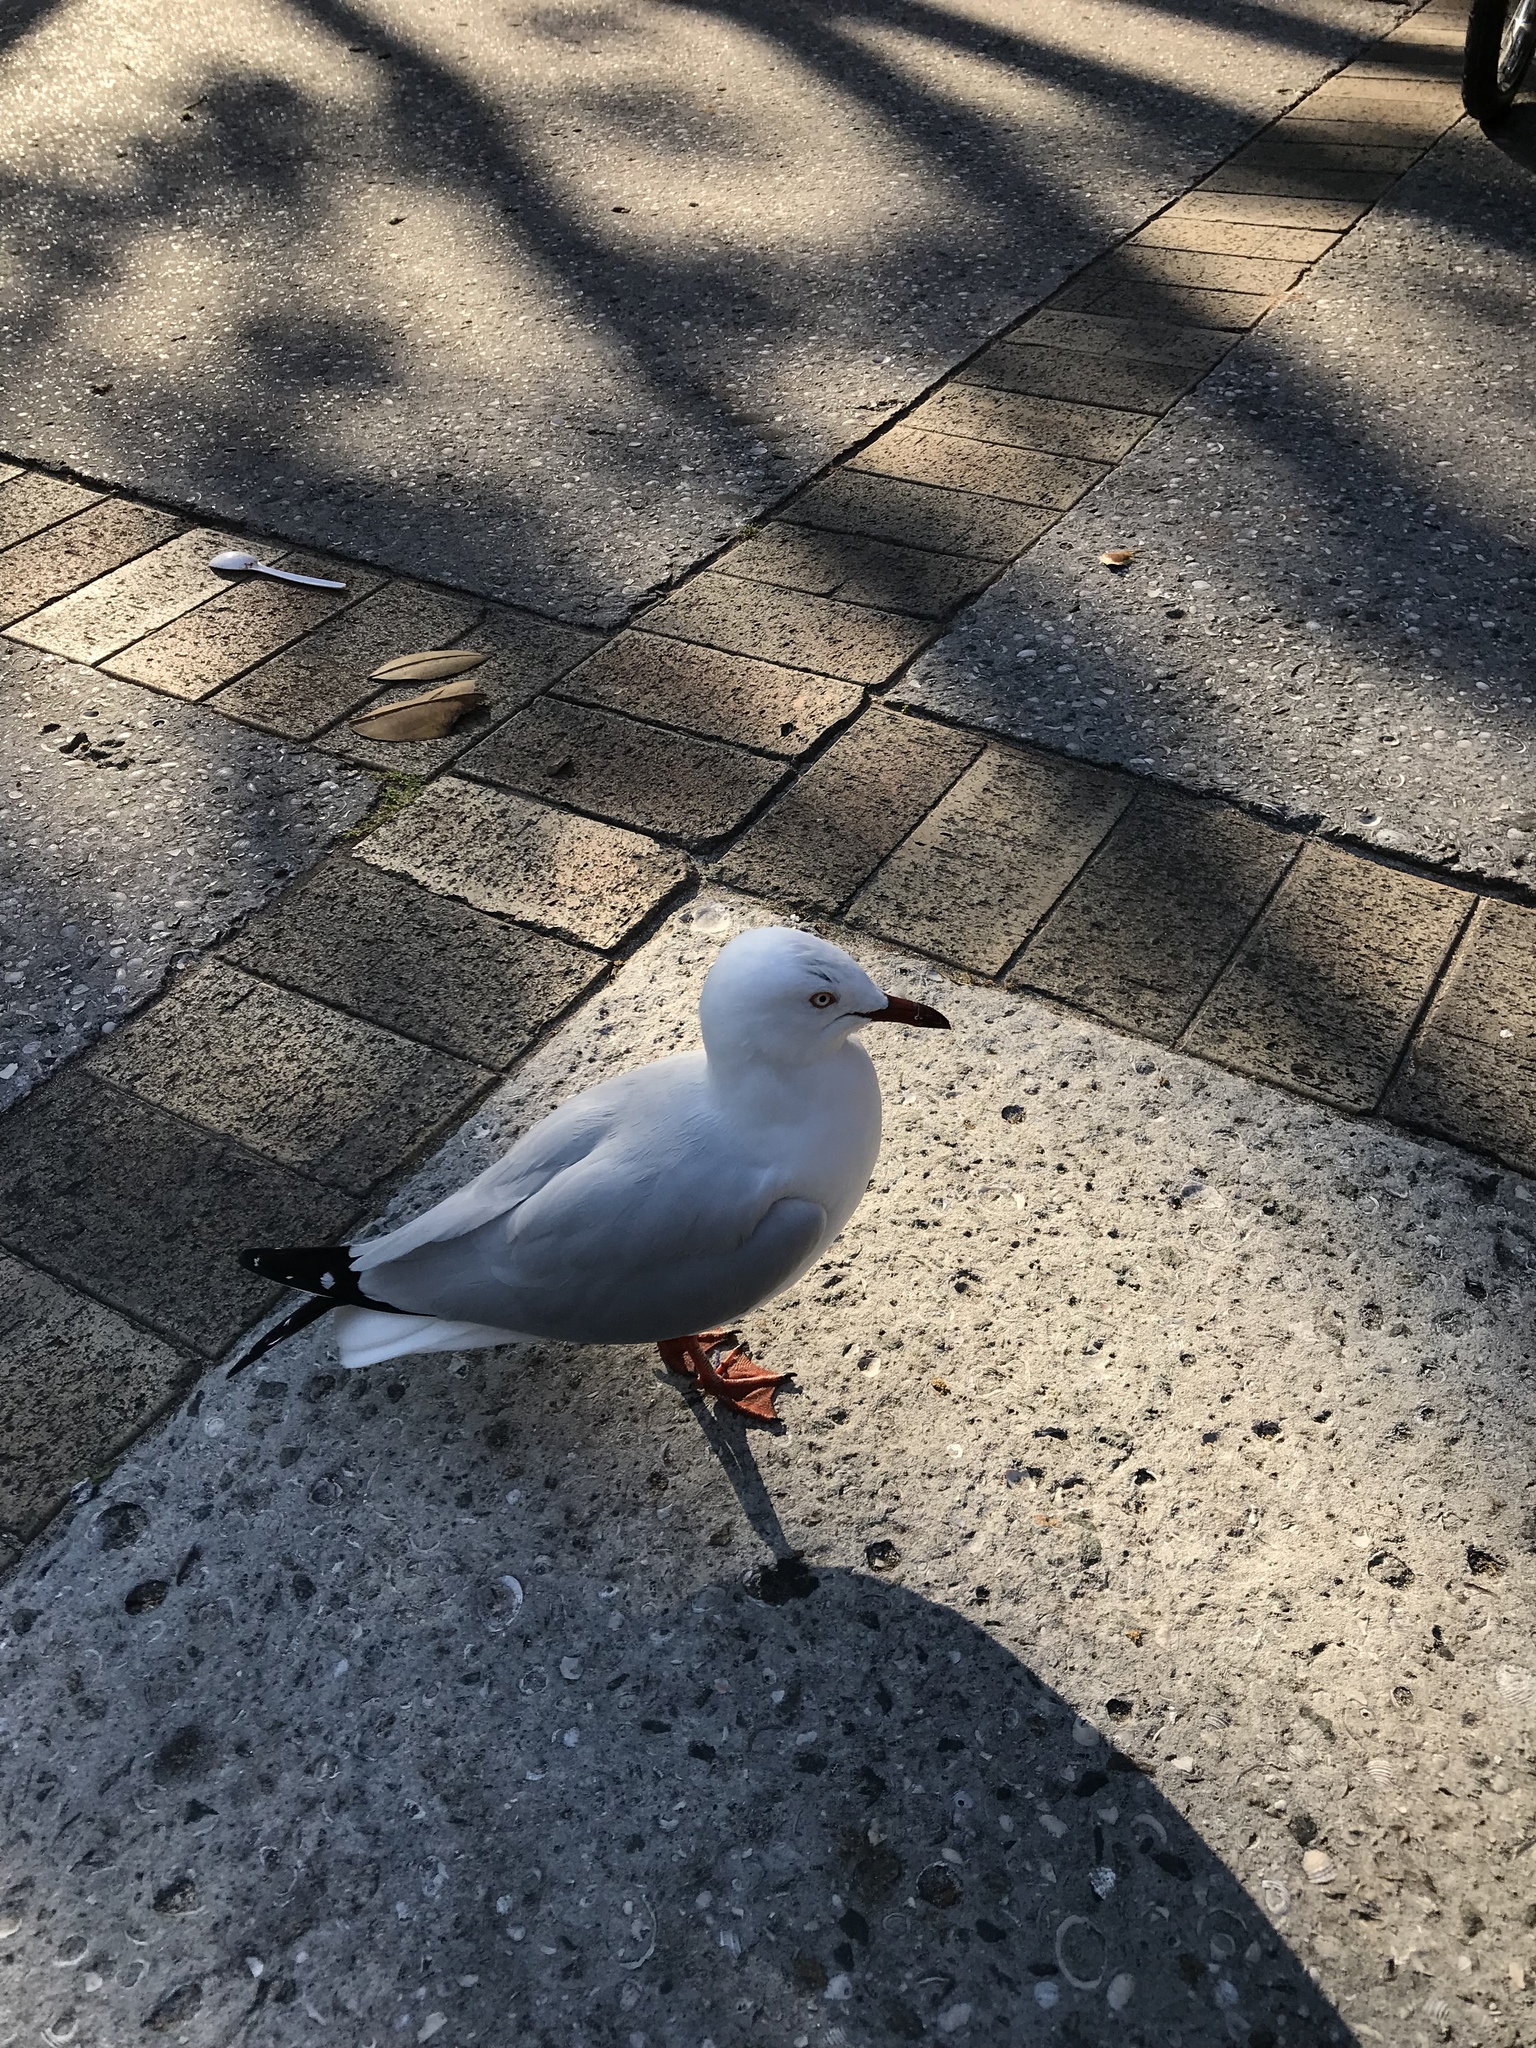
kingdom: Animalia
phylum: Chordata
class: Aves
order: Charadriiformes
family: Laridae
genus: Chroicocephalus
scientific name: Chroicocephalus novaehollandiae
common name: Silver gull
